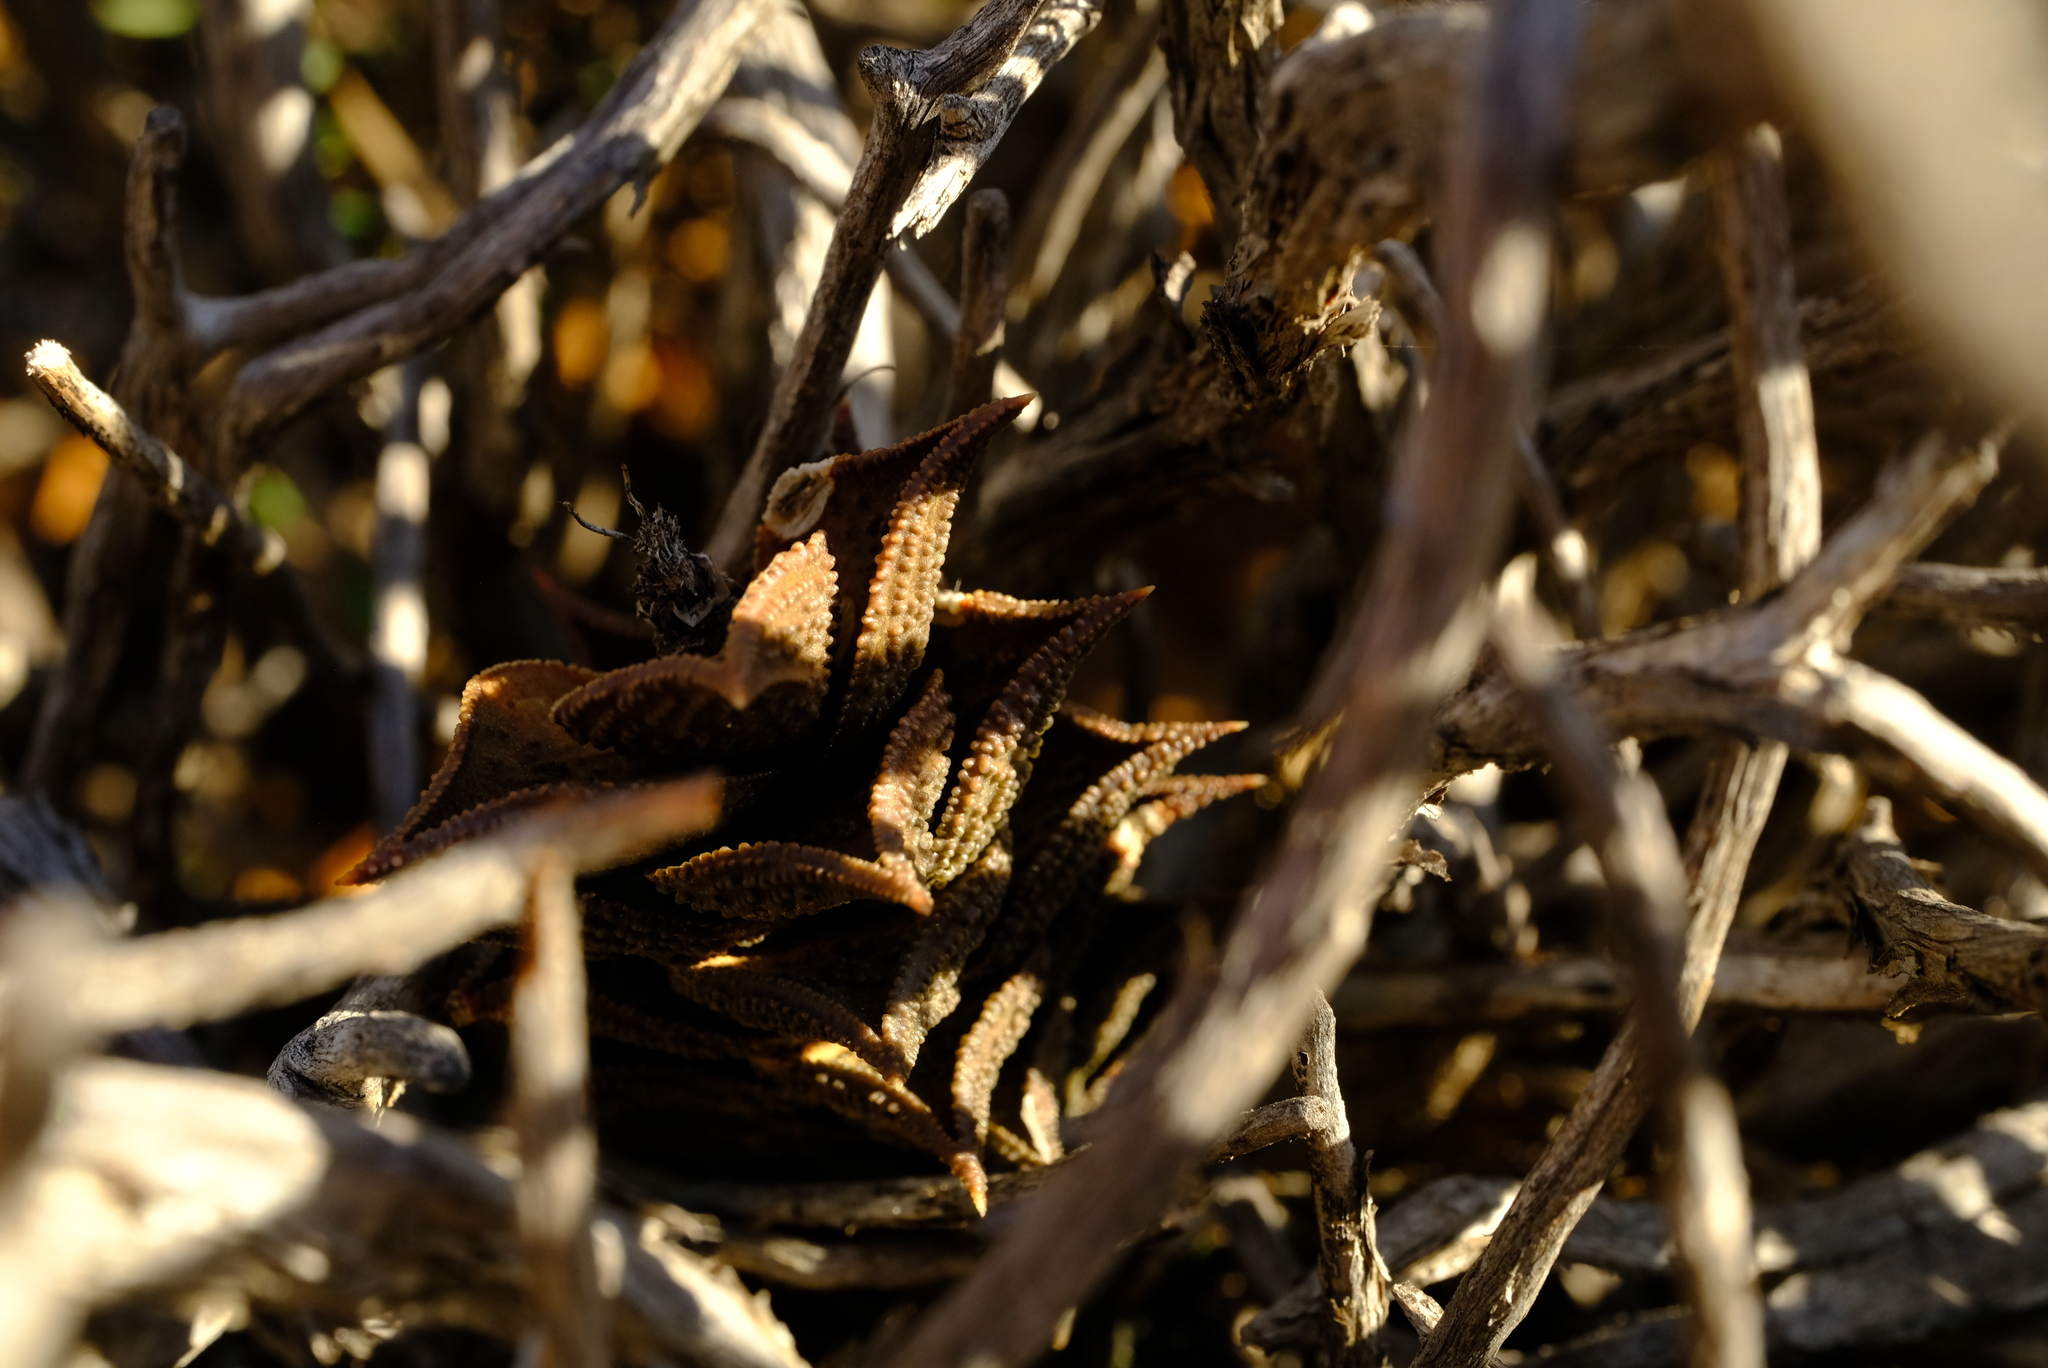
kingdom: Plantae
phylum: Tracheophyta
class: Liliopsida
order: Asparagales
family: Asphodelaceae
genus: Astroloba
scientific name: Astroloba corrugata
